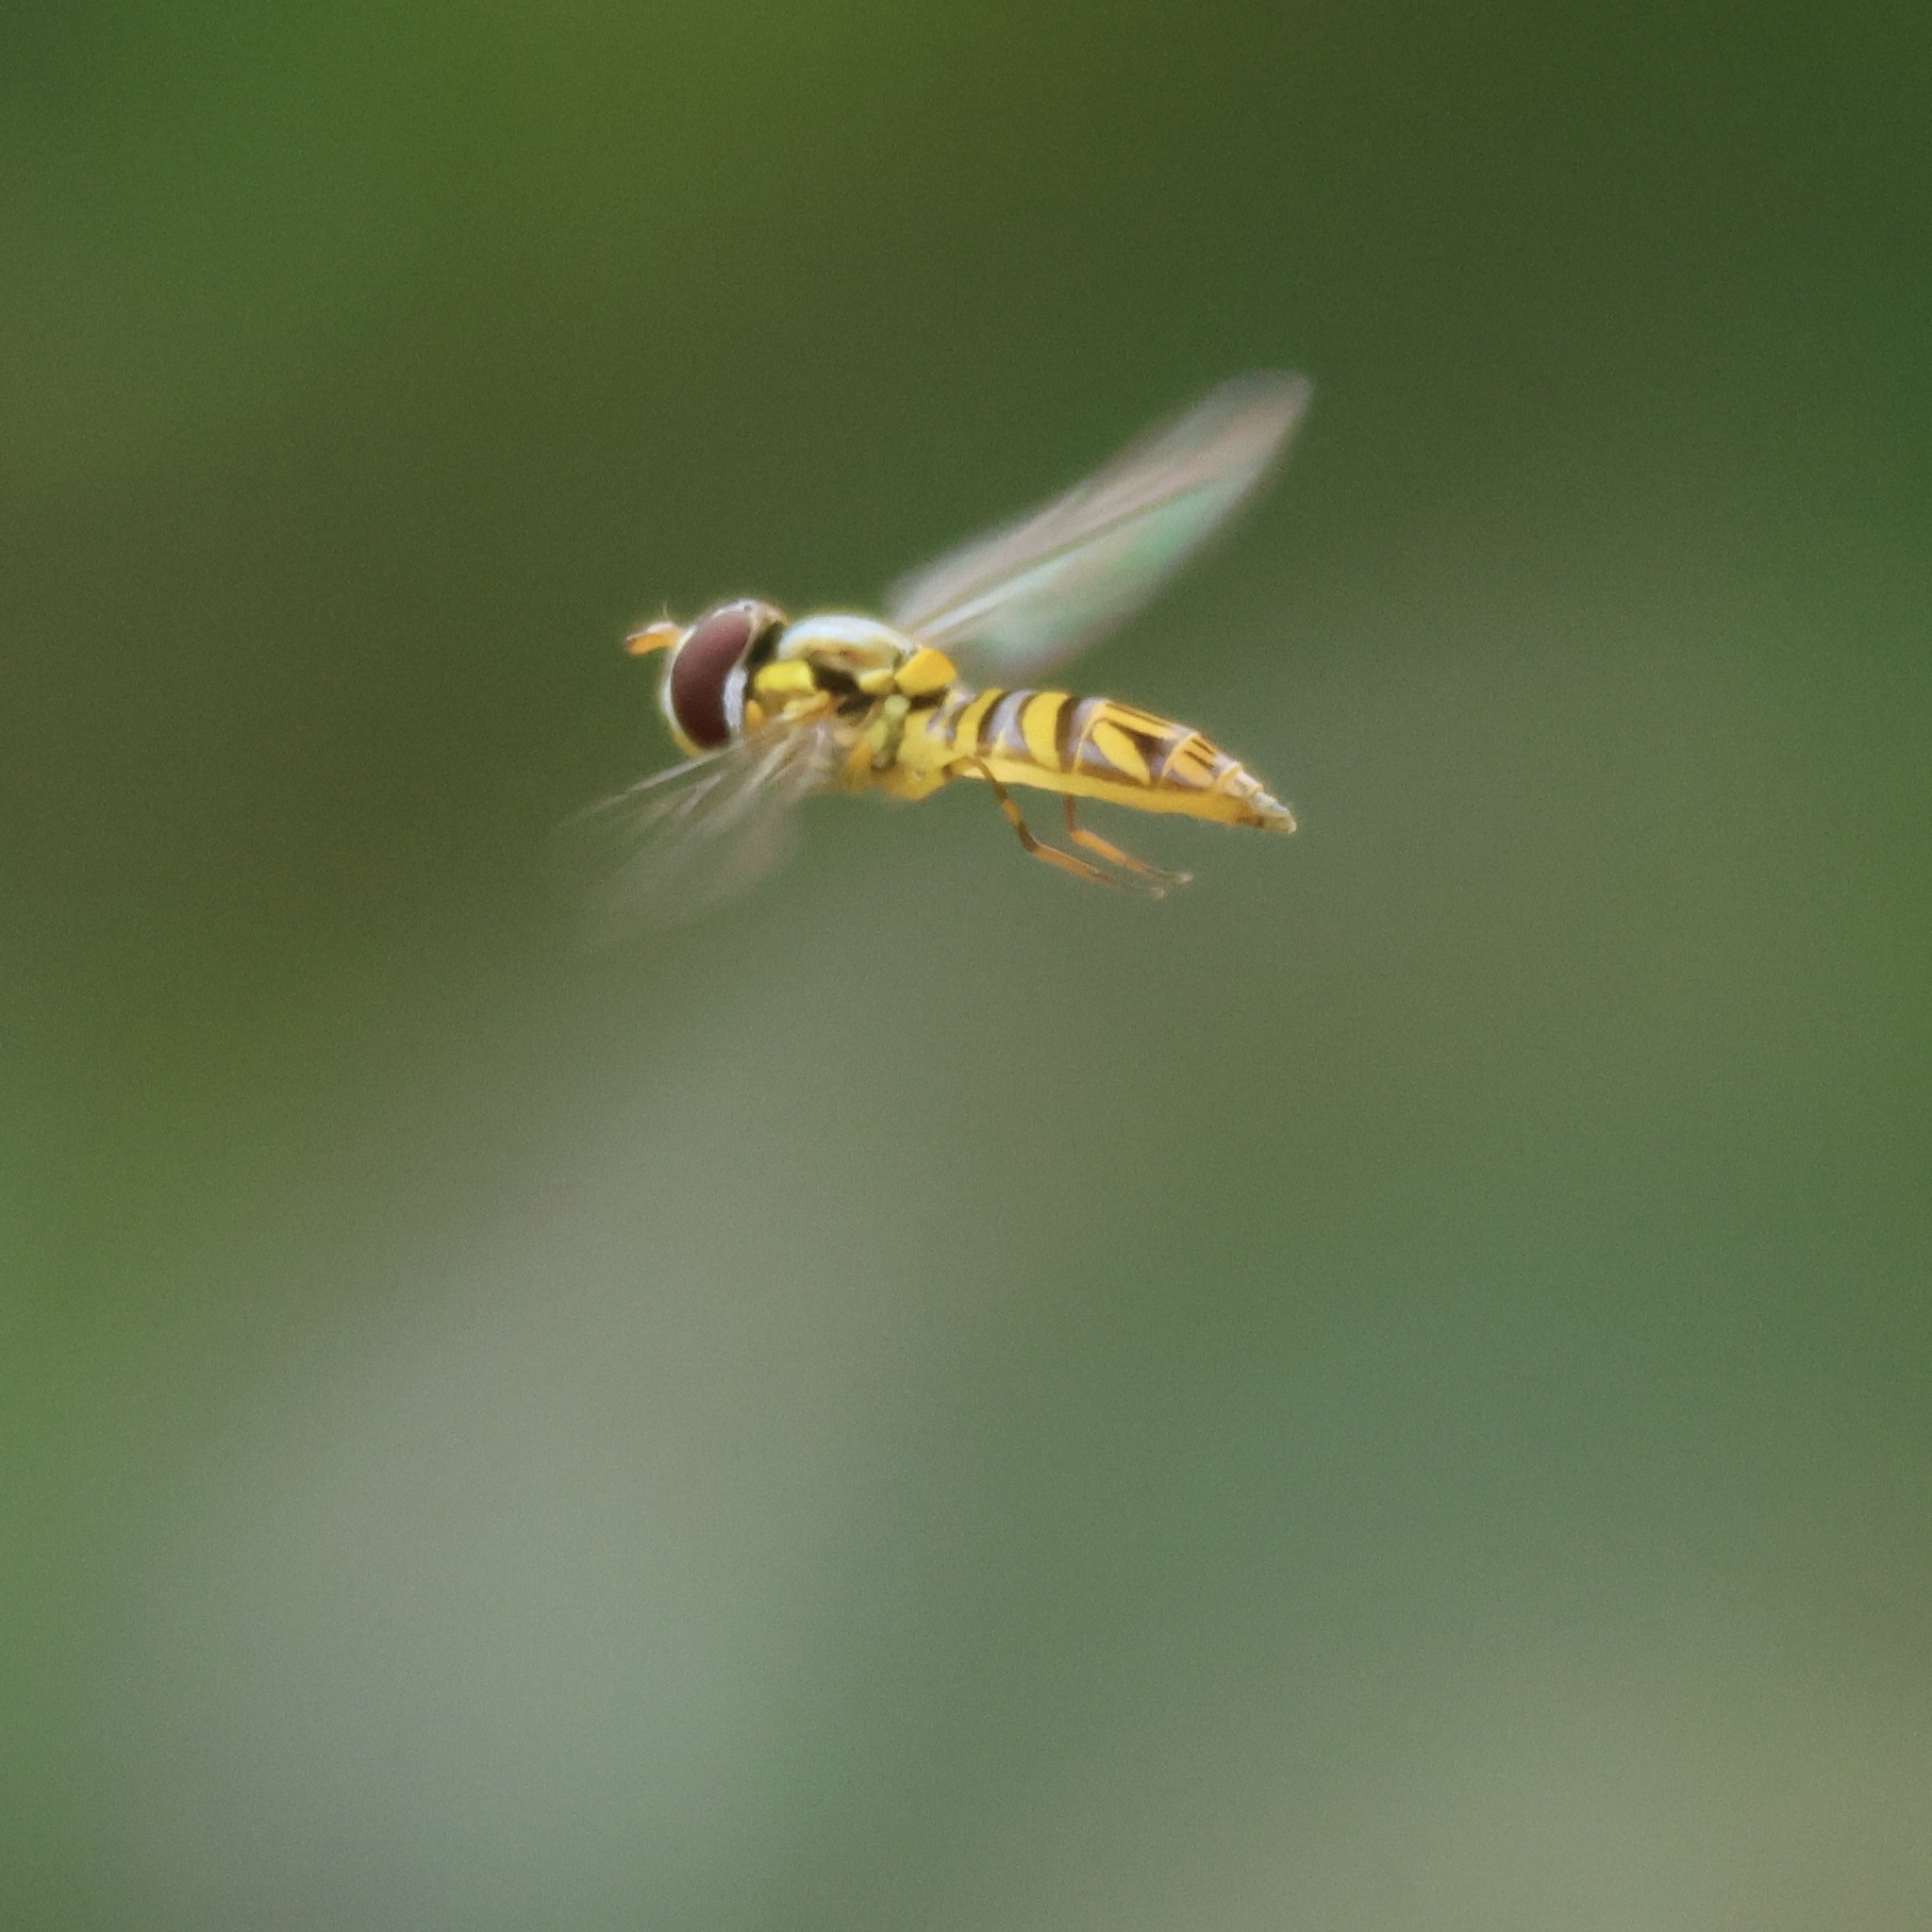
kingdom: Animalia
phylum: Arthropoda
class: Insecta
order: Diptera
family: Syrphidae
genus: Allograpta
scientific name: Allograpta obliqua
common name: Common oblique syrphid
